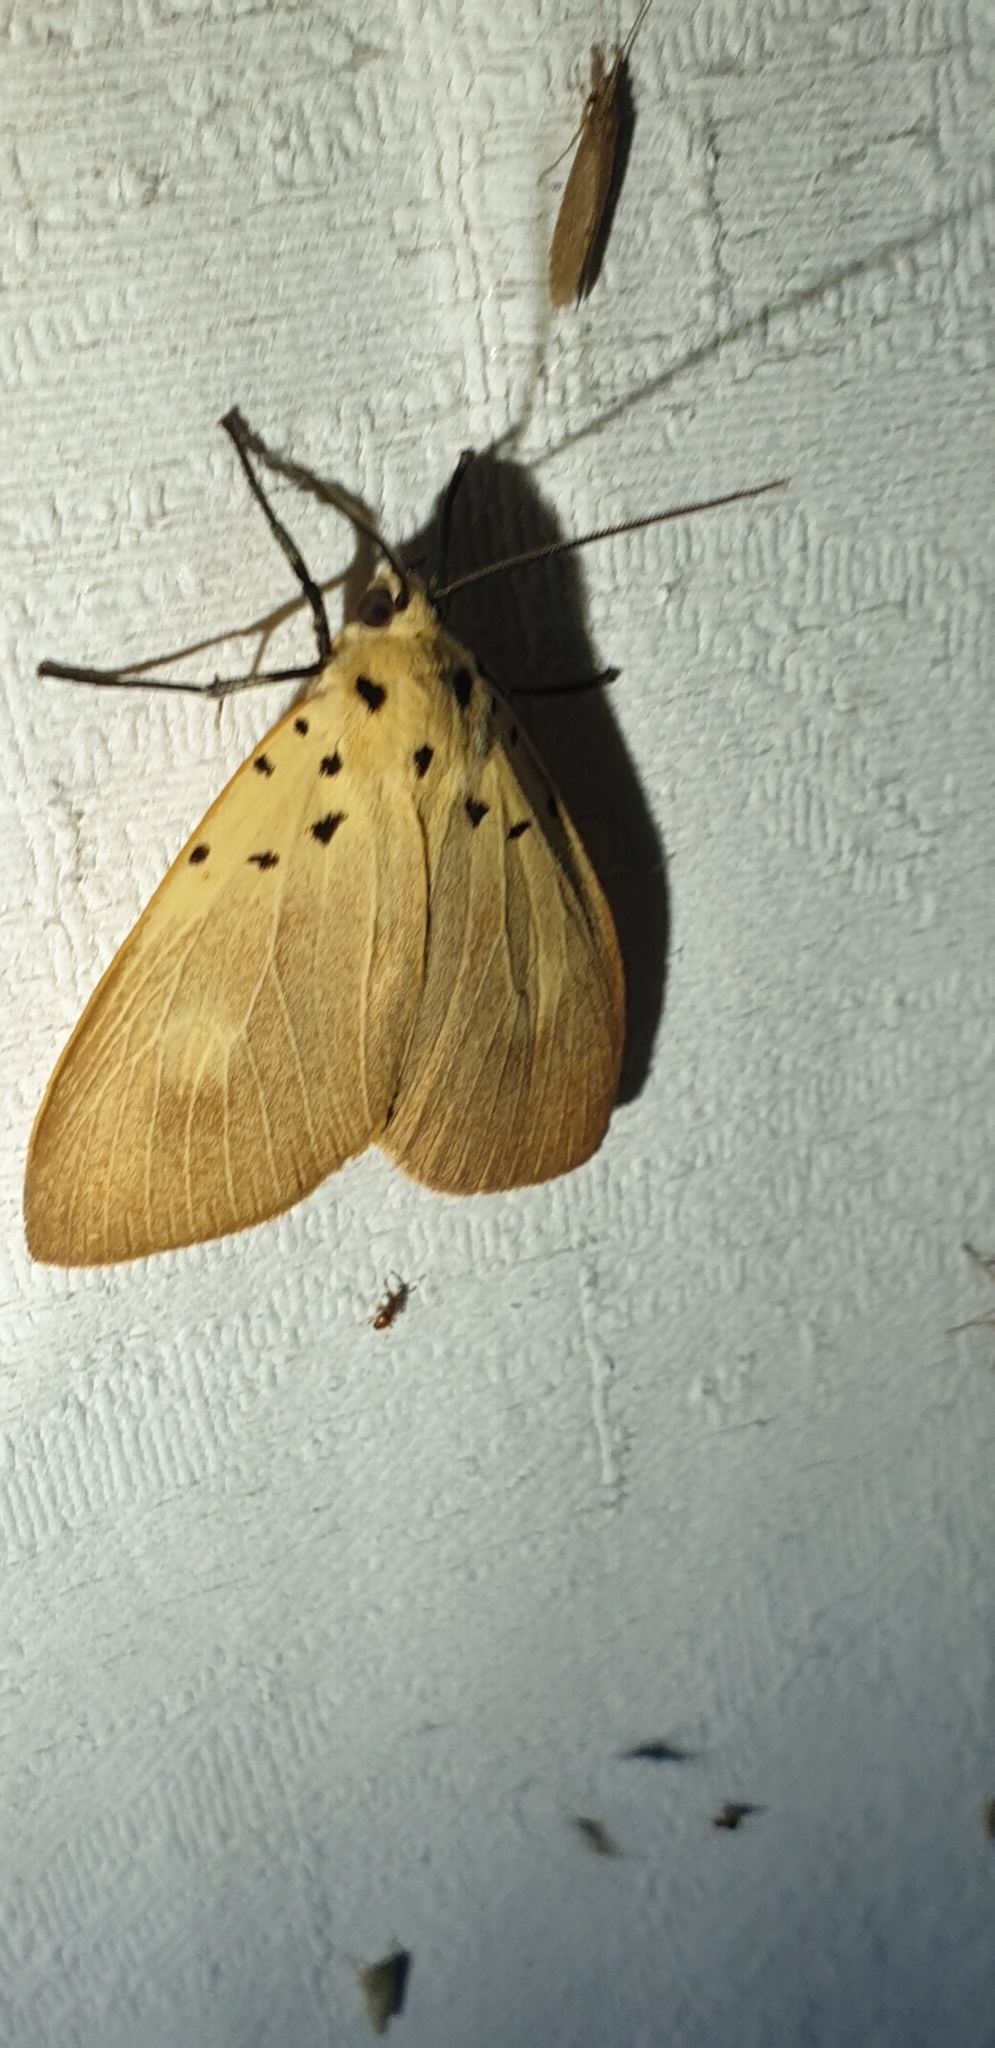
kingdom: Animalia
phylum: Arthropoda
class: Insecta
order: Lepidoptera
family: Erebidae
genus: Asota
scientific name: Asota iodamia
